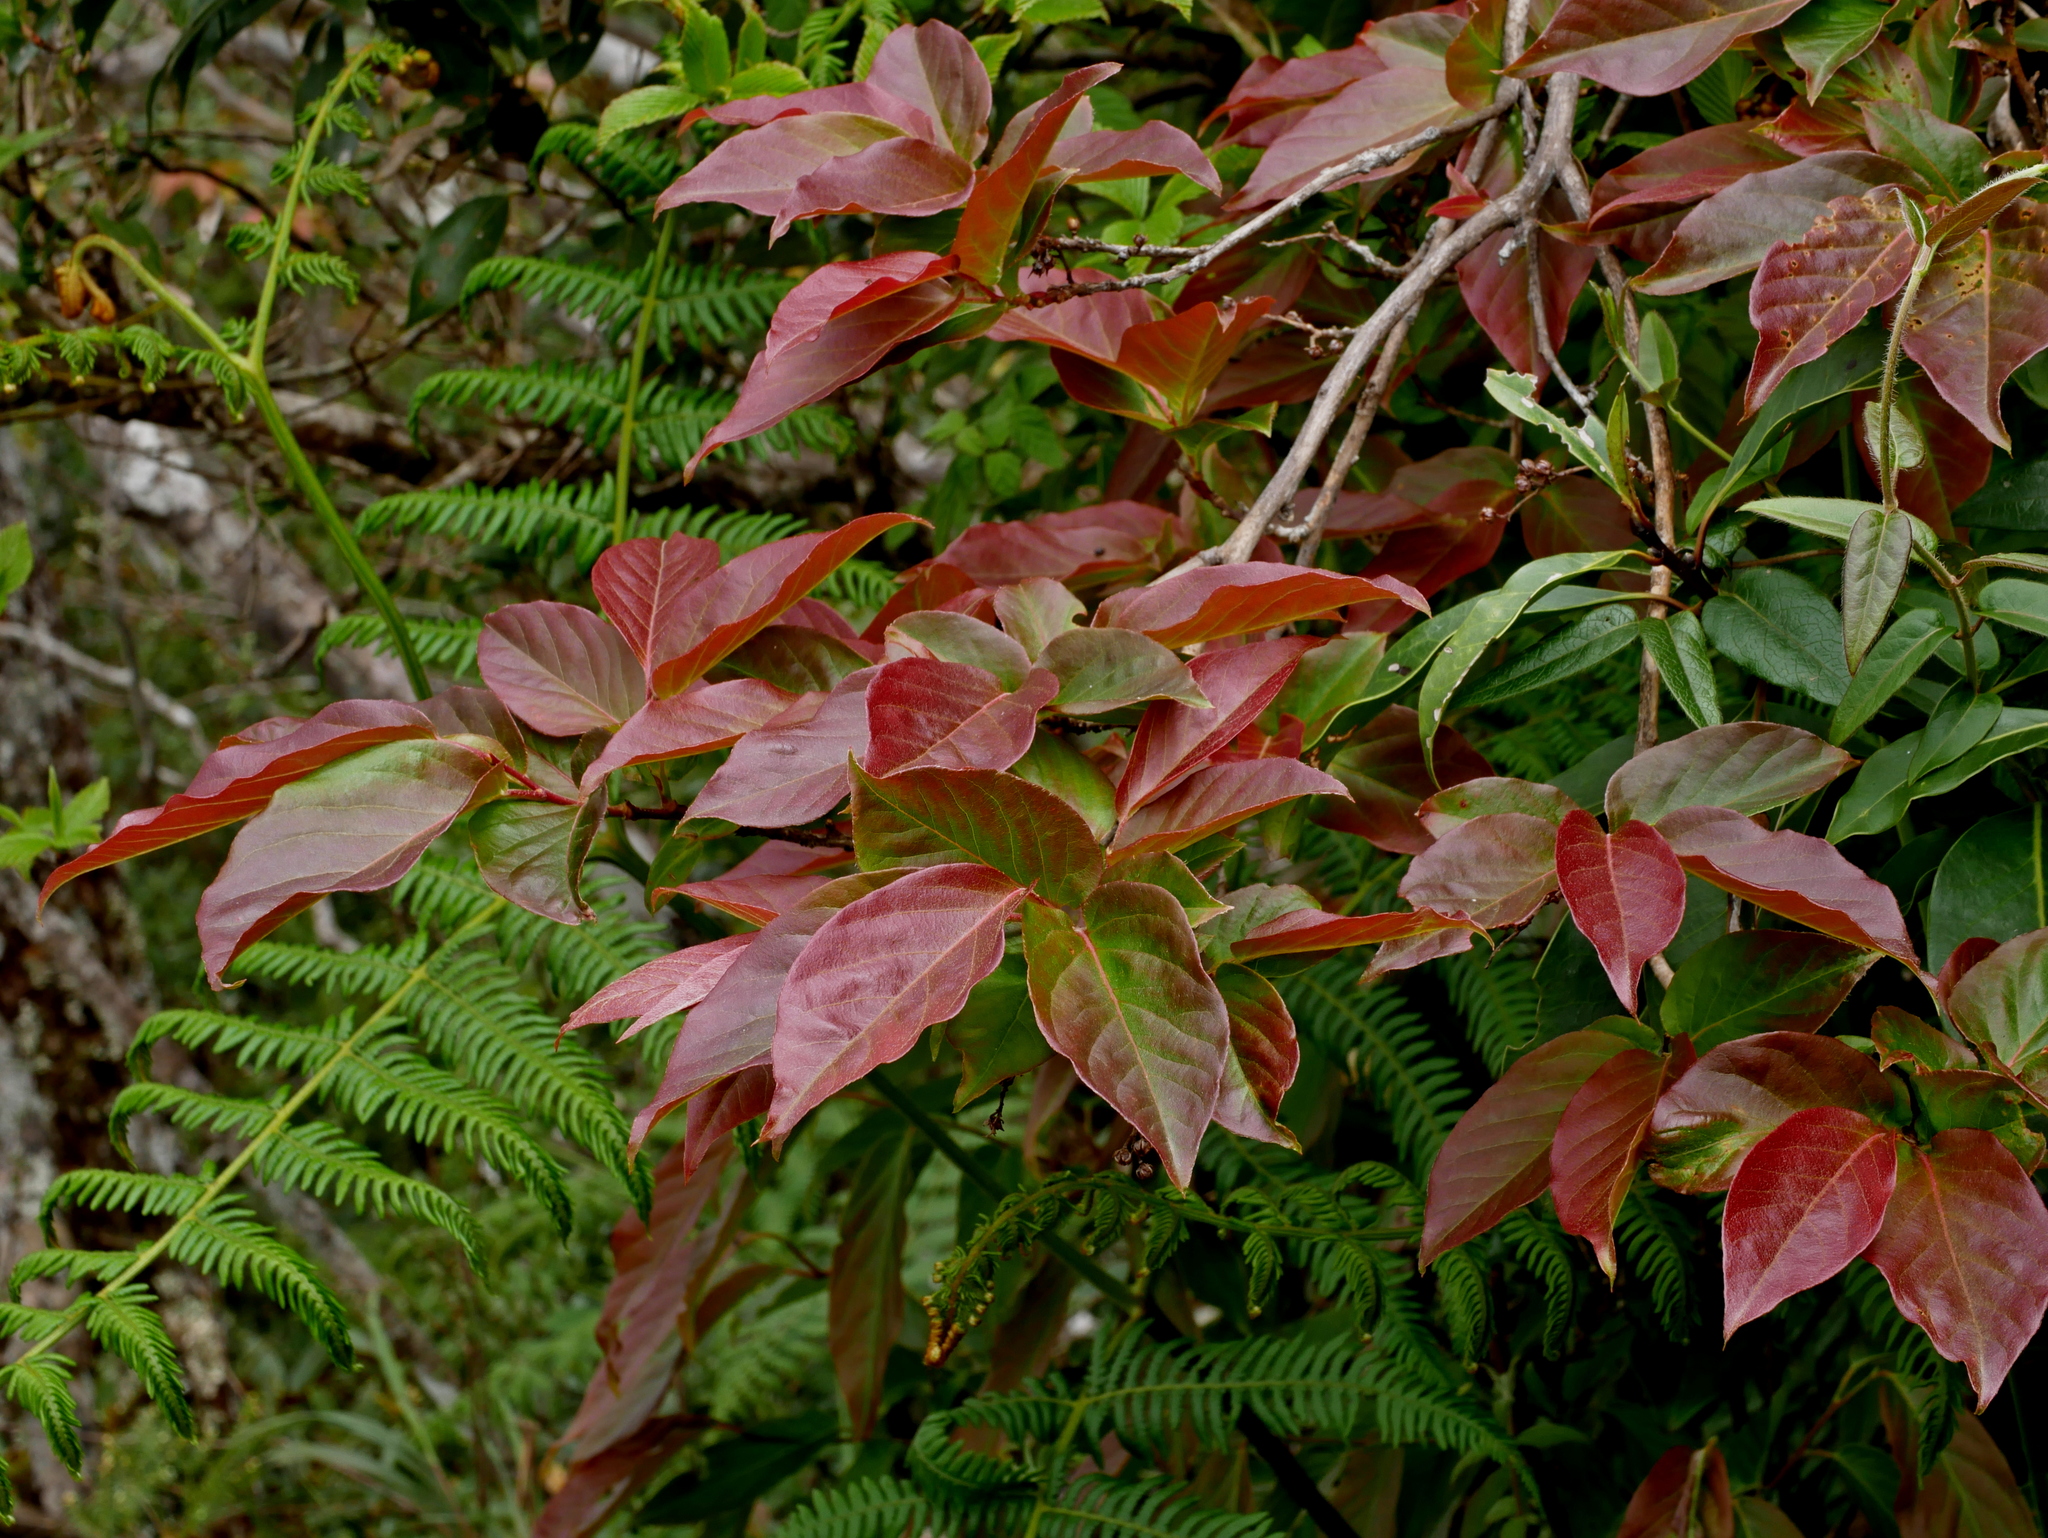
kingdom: Plantae
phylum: Tracheophyta
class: Magnoliopsida
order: Ericales
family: Ericaceae
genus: Lyonia
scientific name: Lyonia ovalifolia
